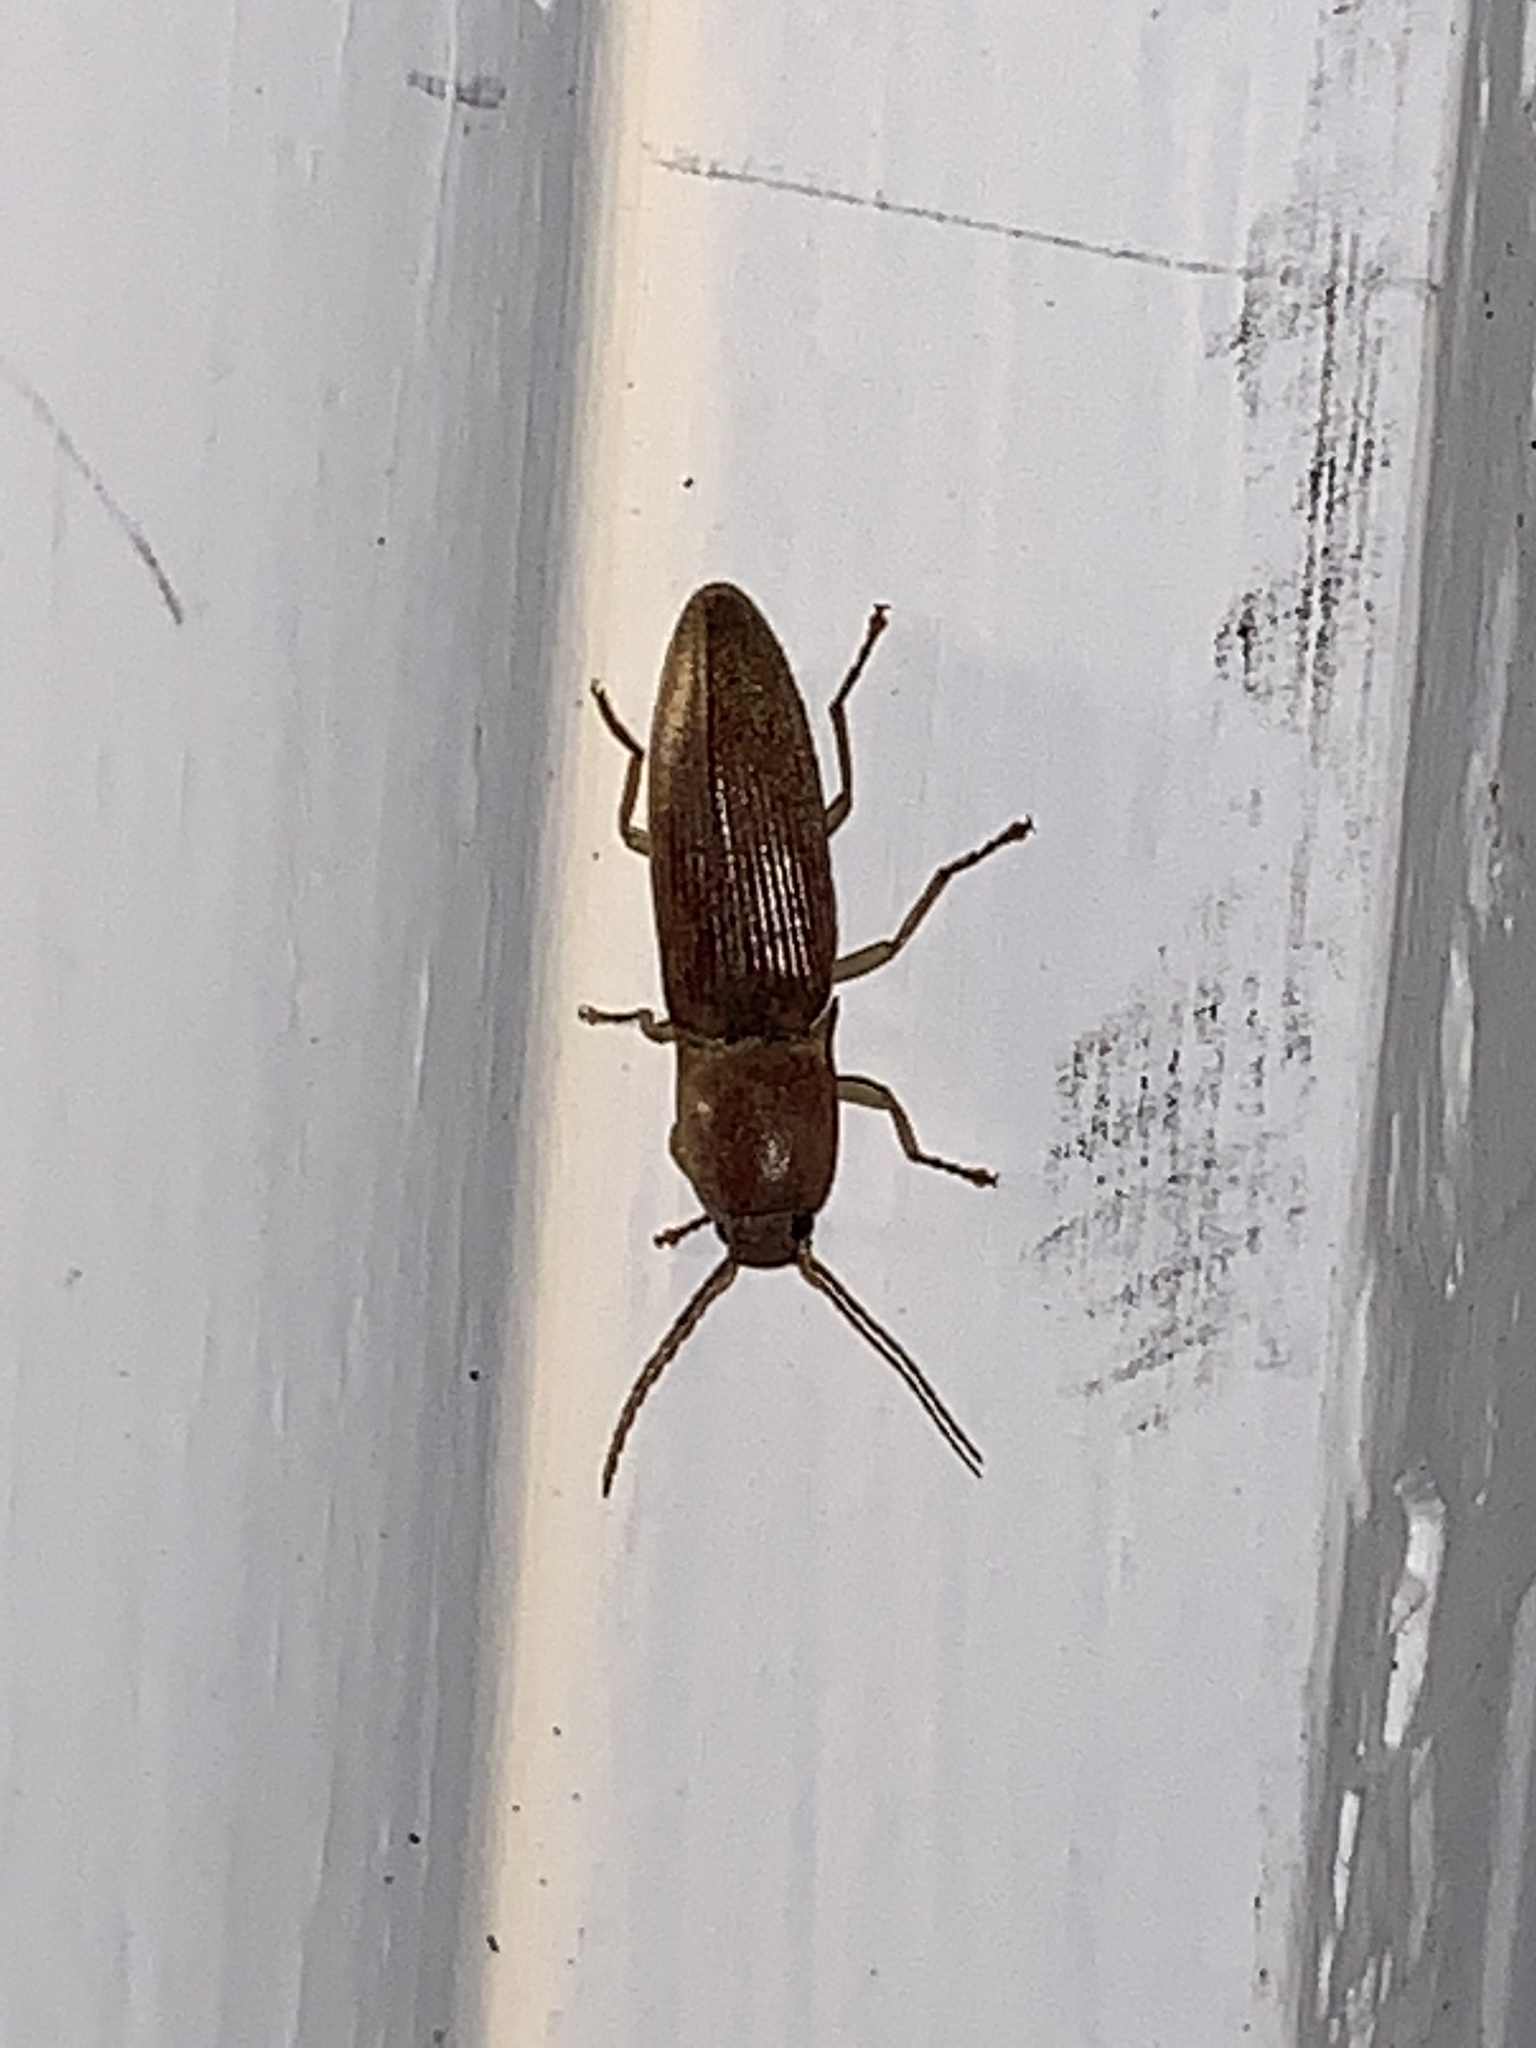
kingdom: Animalia
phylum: Arthropoda
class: Insecta
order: Coleoptera
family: Elateridae
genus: Monocrepidius
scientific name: Monocrepidius lividus
